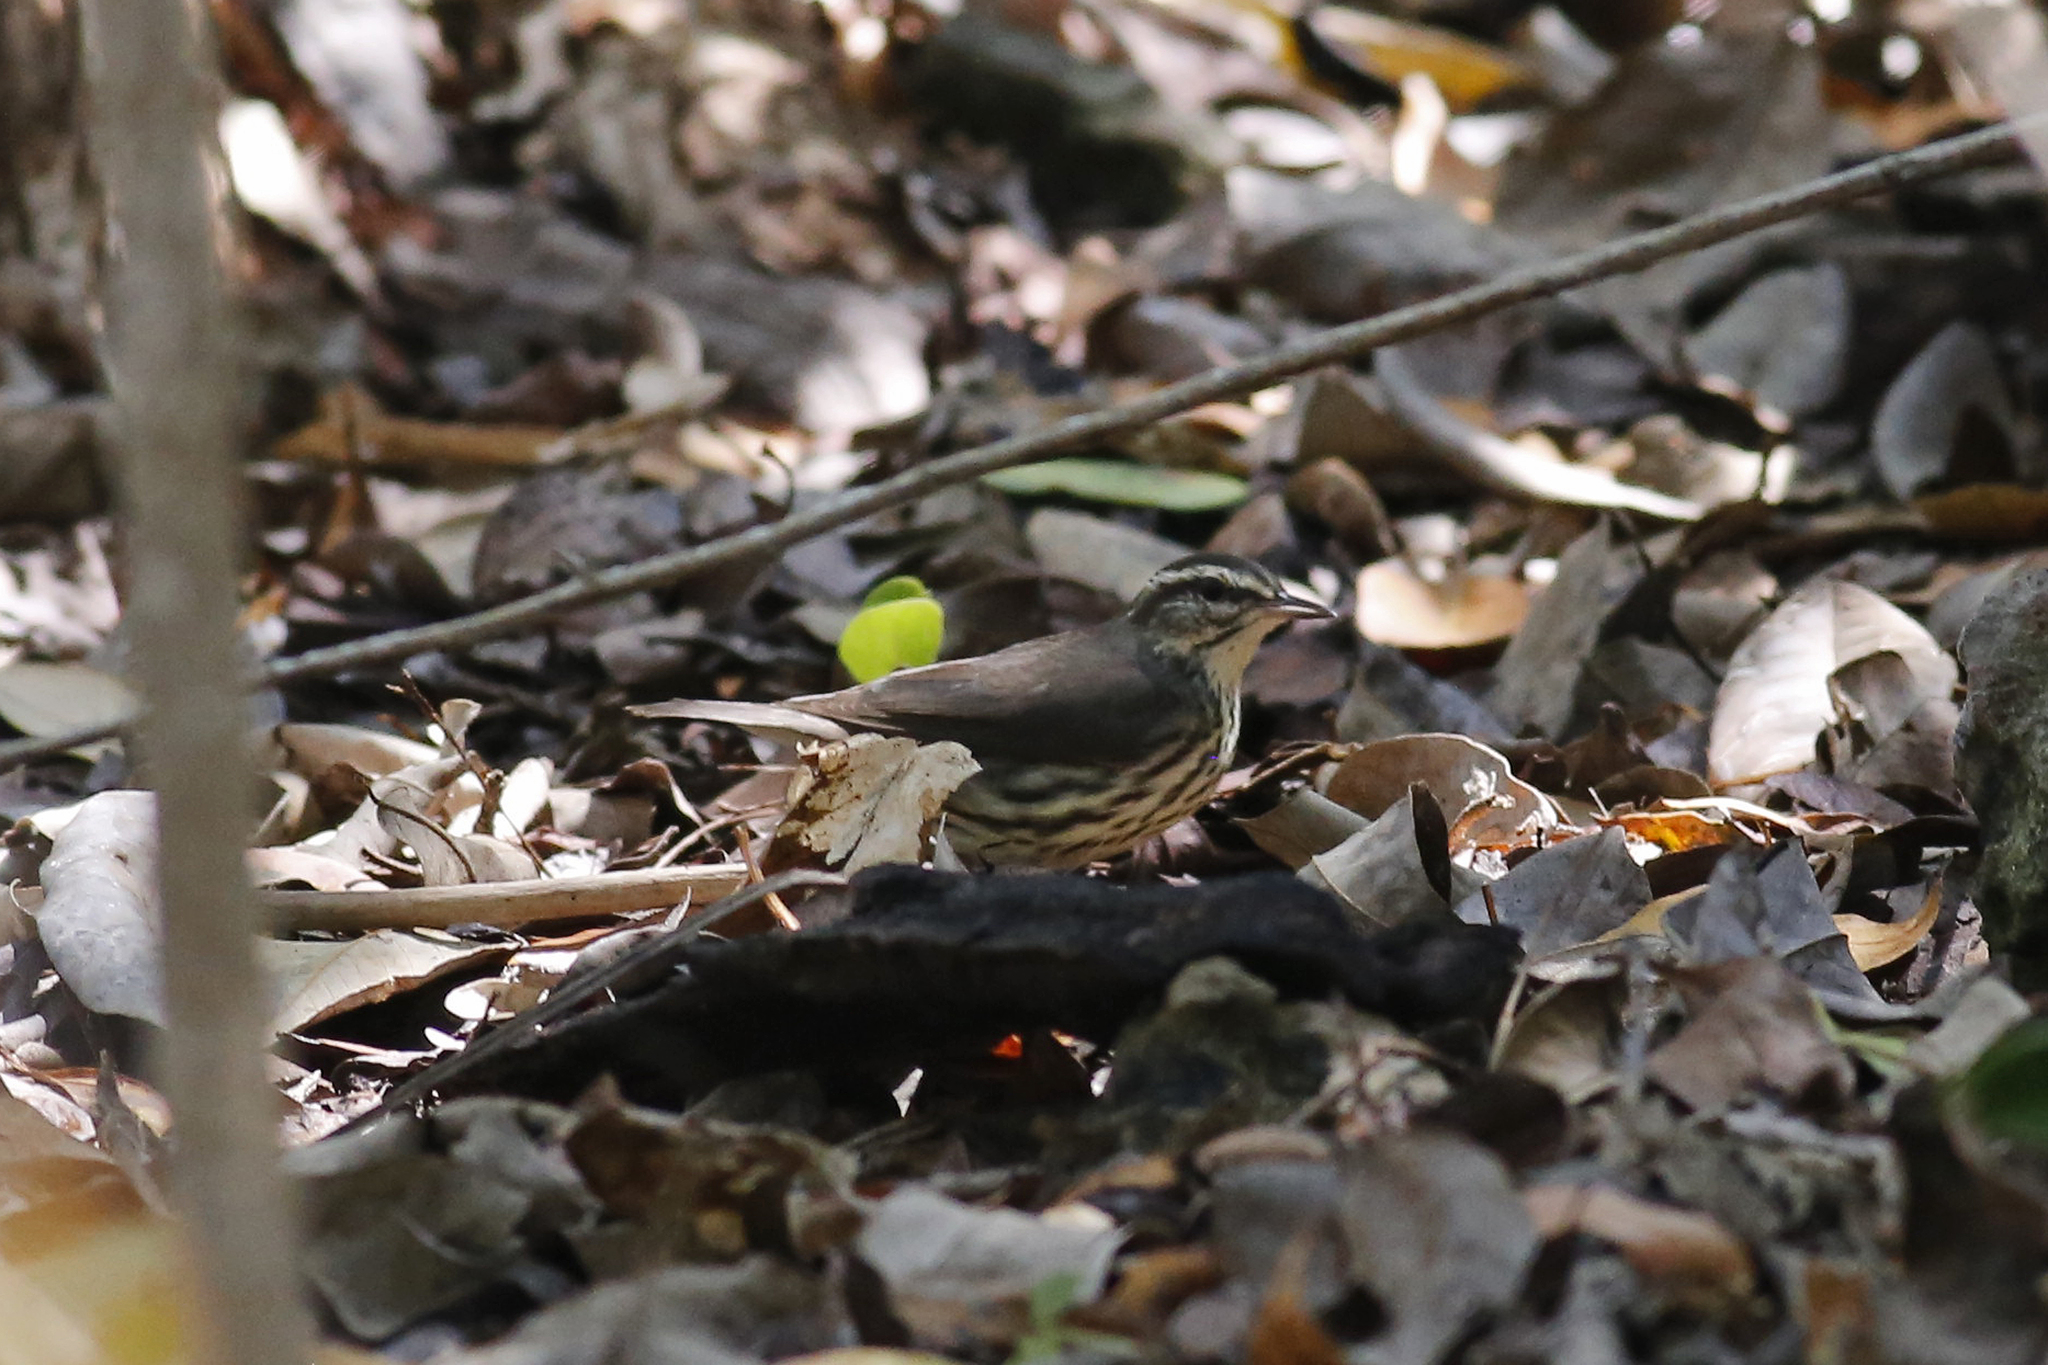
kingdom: Animalia
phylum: Chordata
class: Aves
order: Passeriformes
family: Parulidae
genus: Parkesia
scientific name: Parkesia noveboracensis
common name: Northern waterthrush
